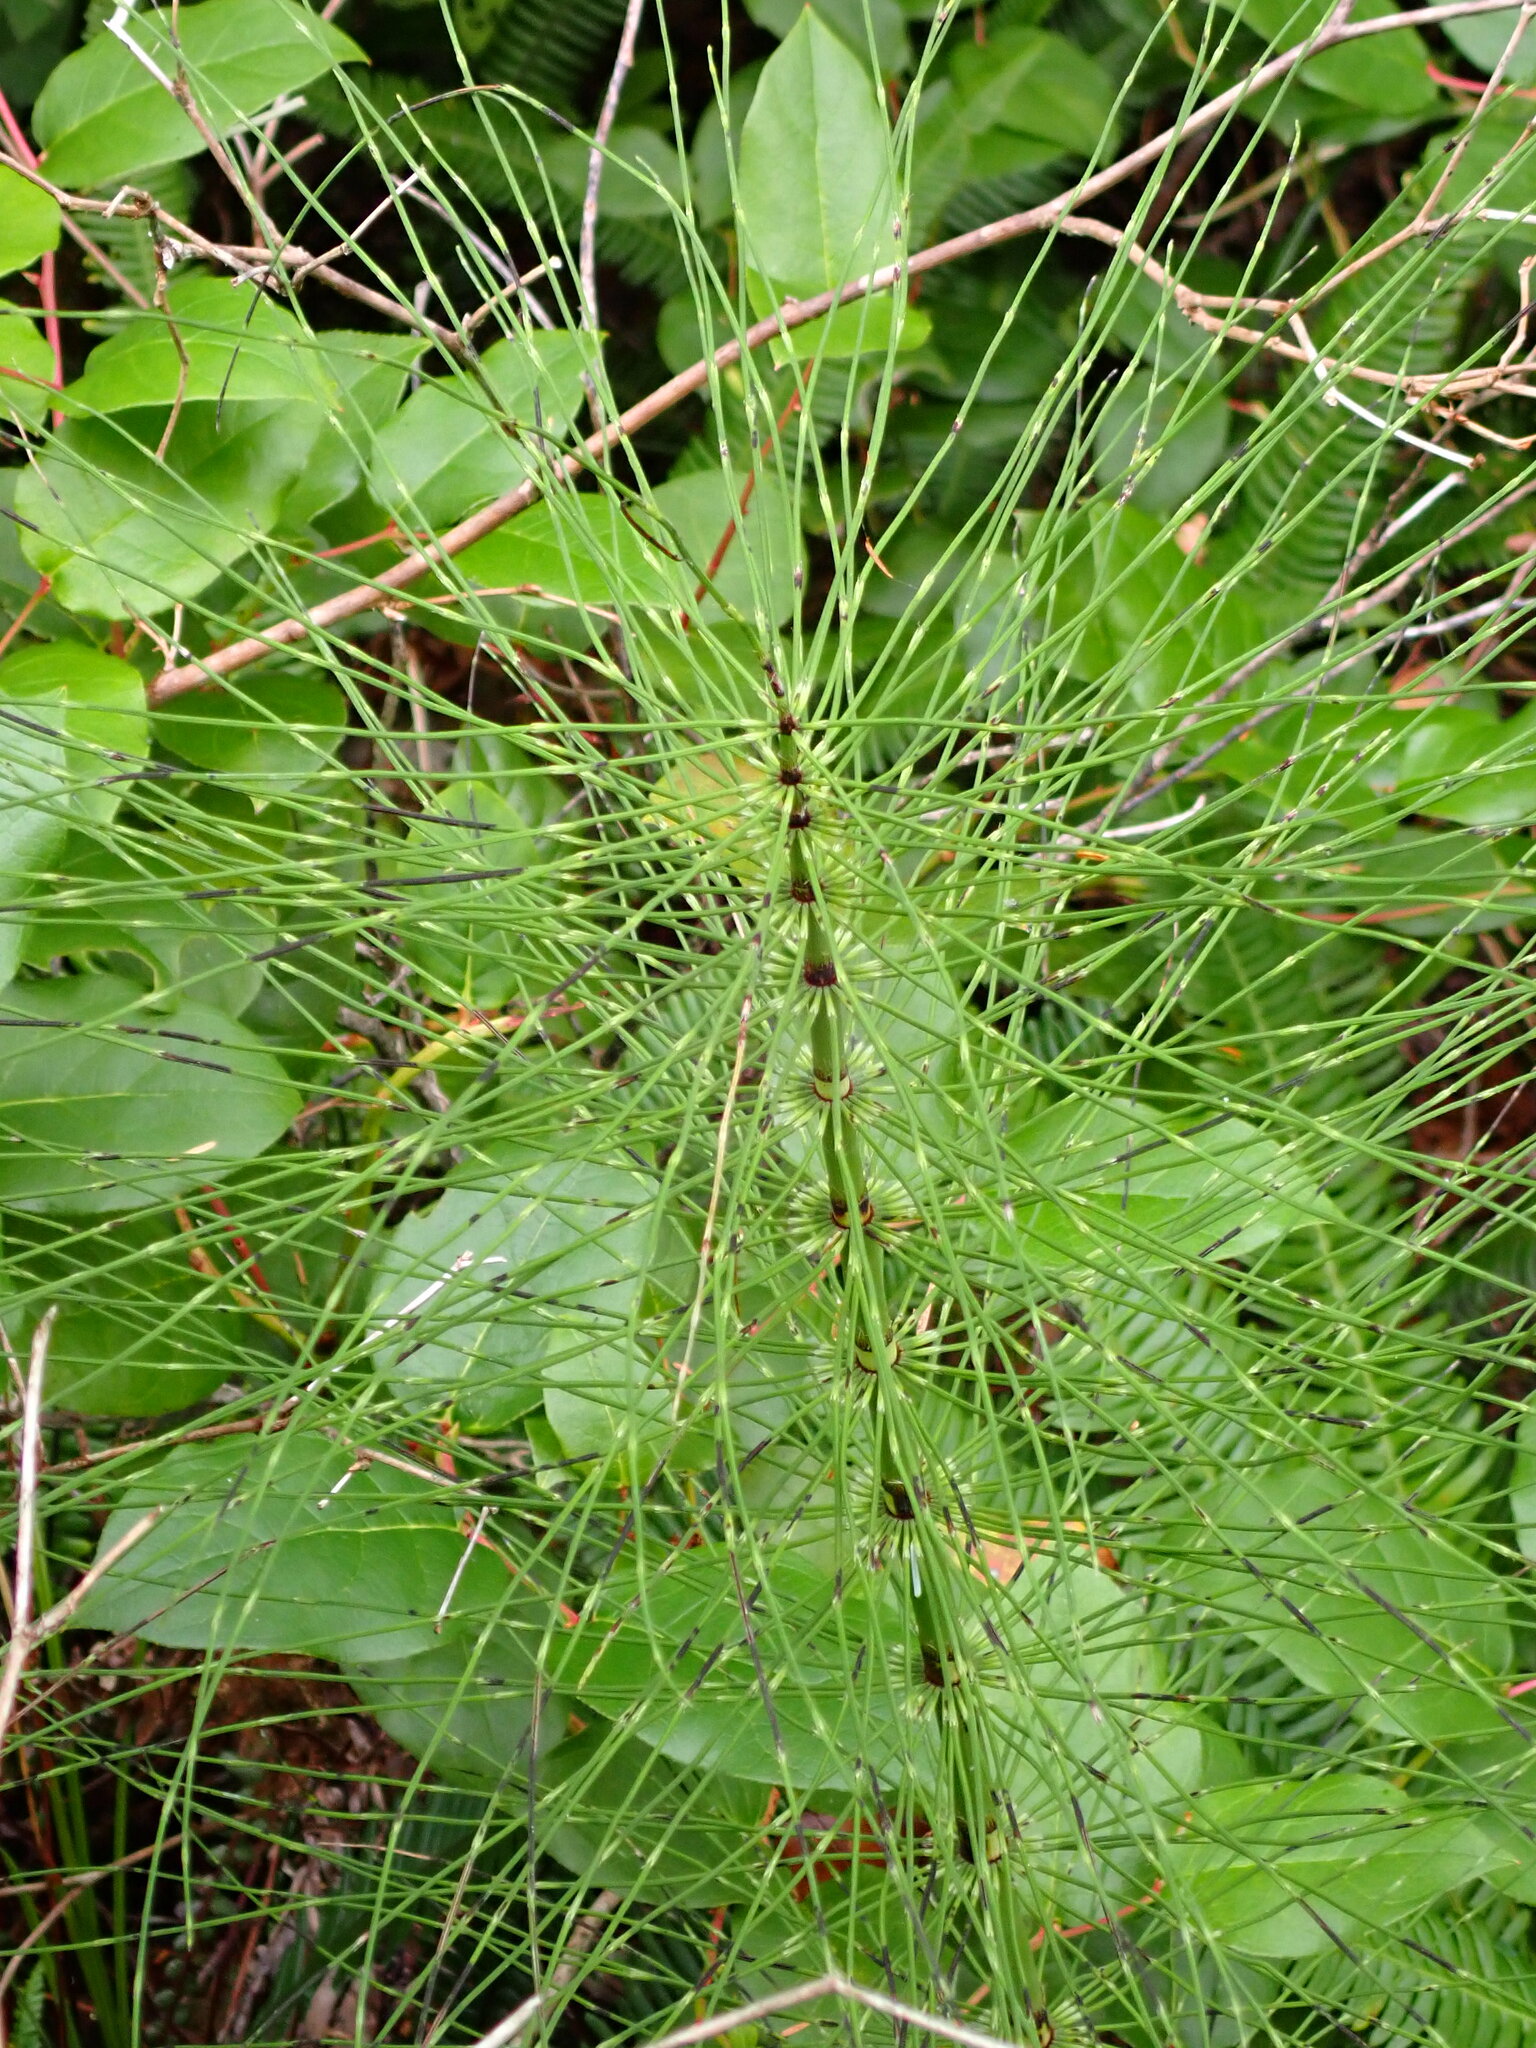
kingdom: Plantae
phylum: Tracheophyta
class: Polypodiopsida
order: Equisetales
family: Equisetaceae
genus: Equisetum
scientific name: Equisetum braunii
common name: Braun's horsetail
